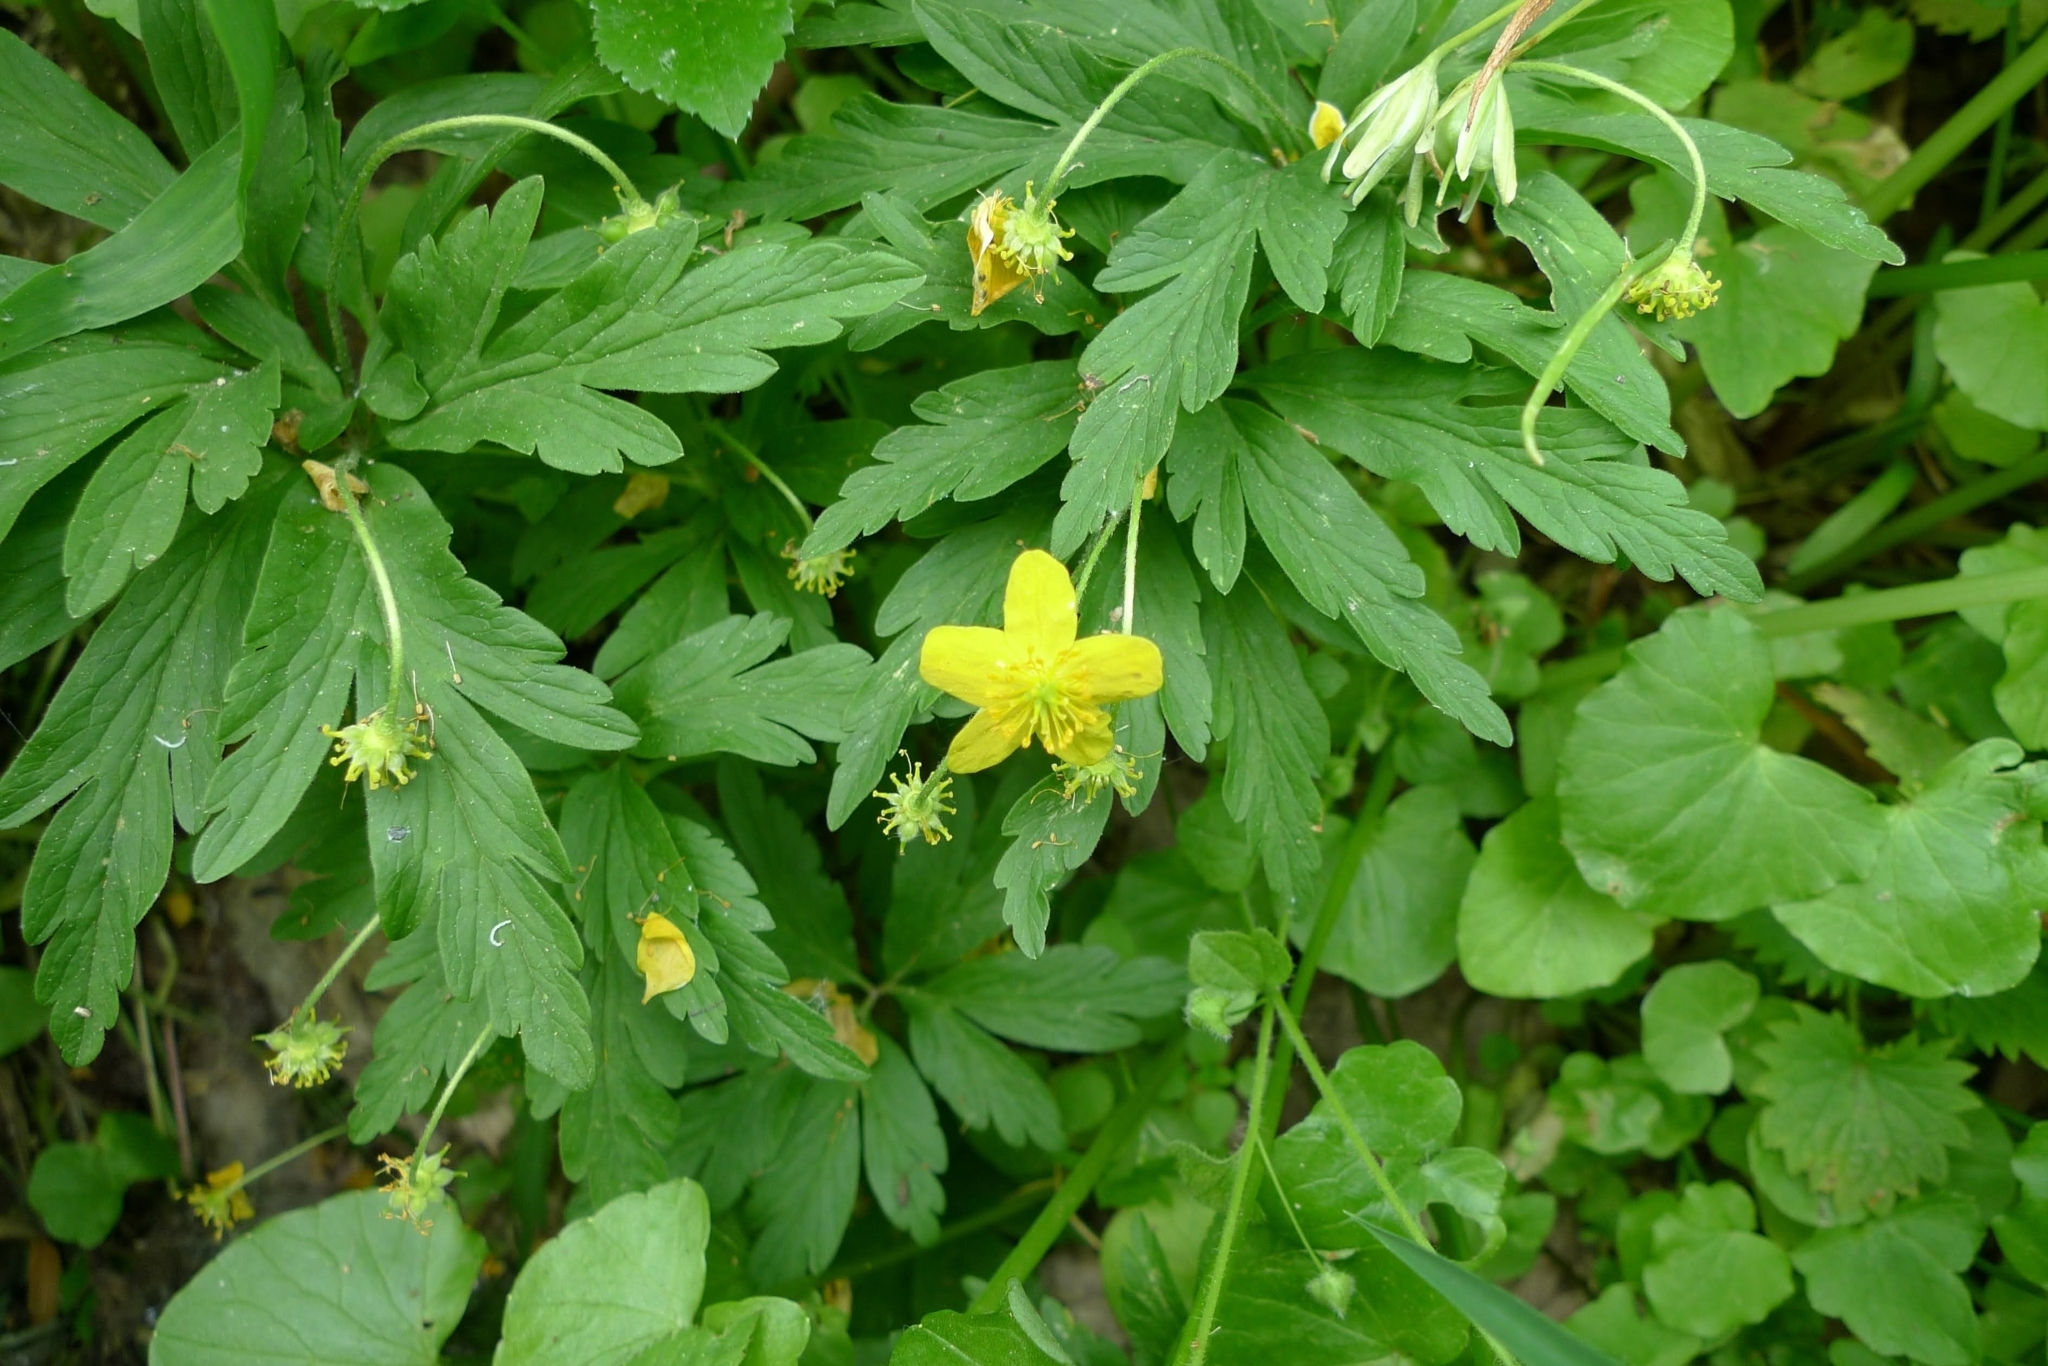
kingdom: Plantae
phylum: Tracheophyta
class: Magnoliopsida
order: Ranunculales
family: Ranunculaceae
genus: Anemone
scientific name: Anemone ranunculoides
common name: Yellow anemone
